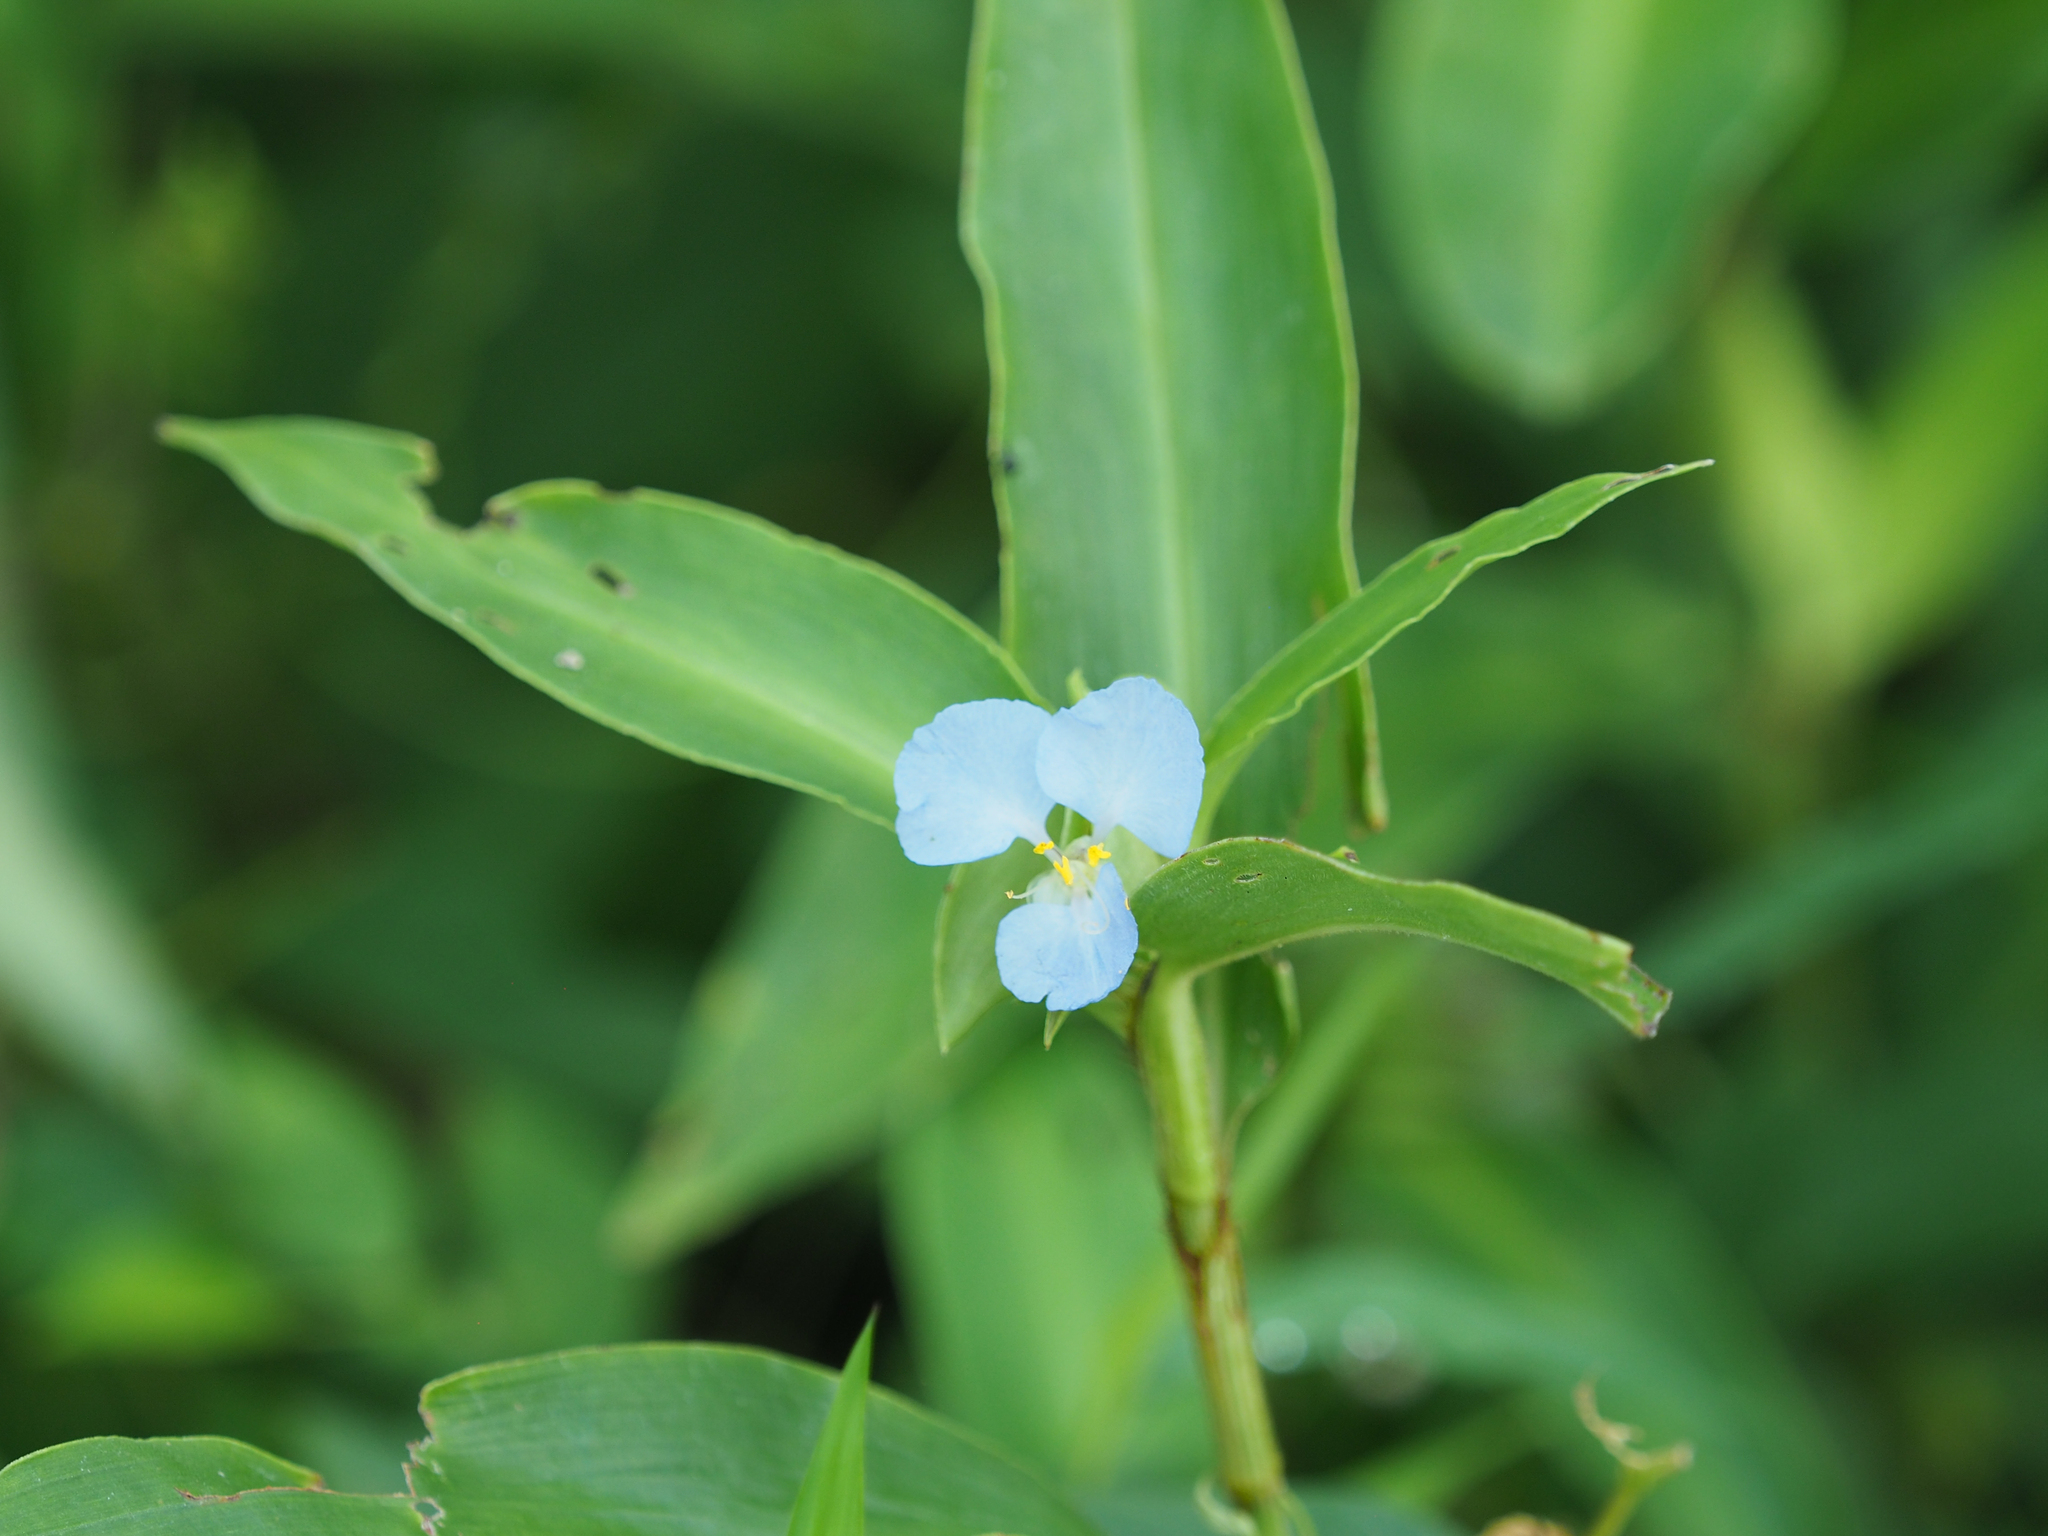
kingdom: Plantae
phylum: Tracheophyta
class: Liliopsida
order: Commelinales
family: Commelinaceae
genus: Commelina
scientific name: Commelina virginica
